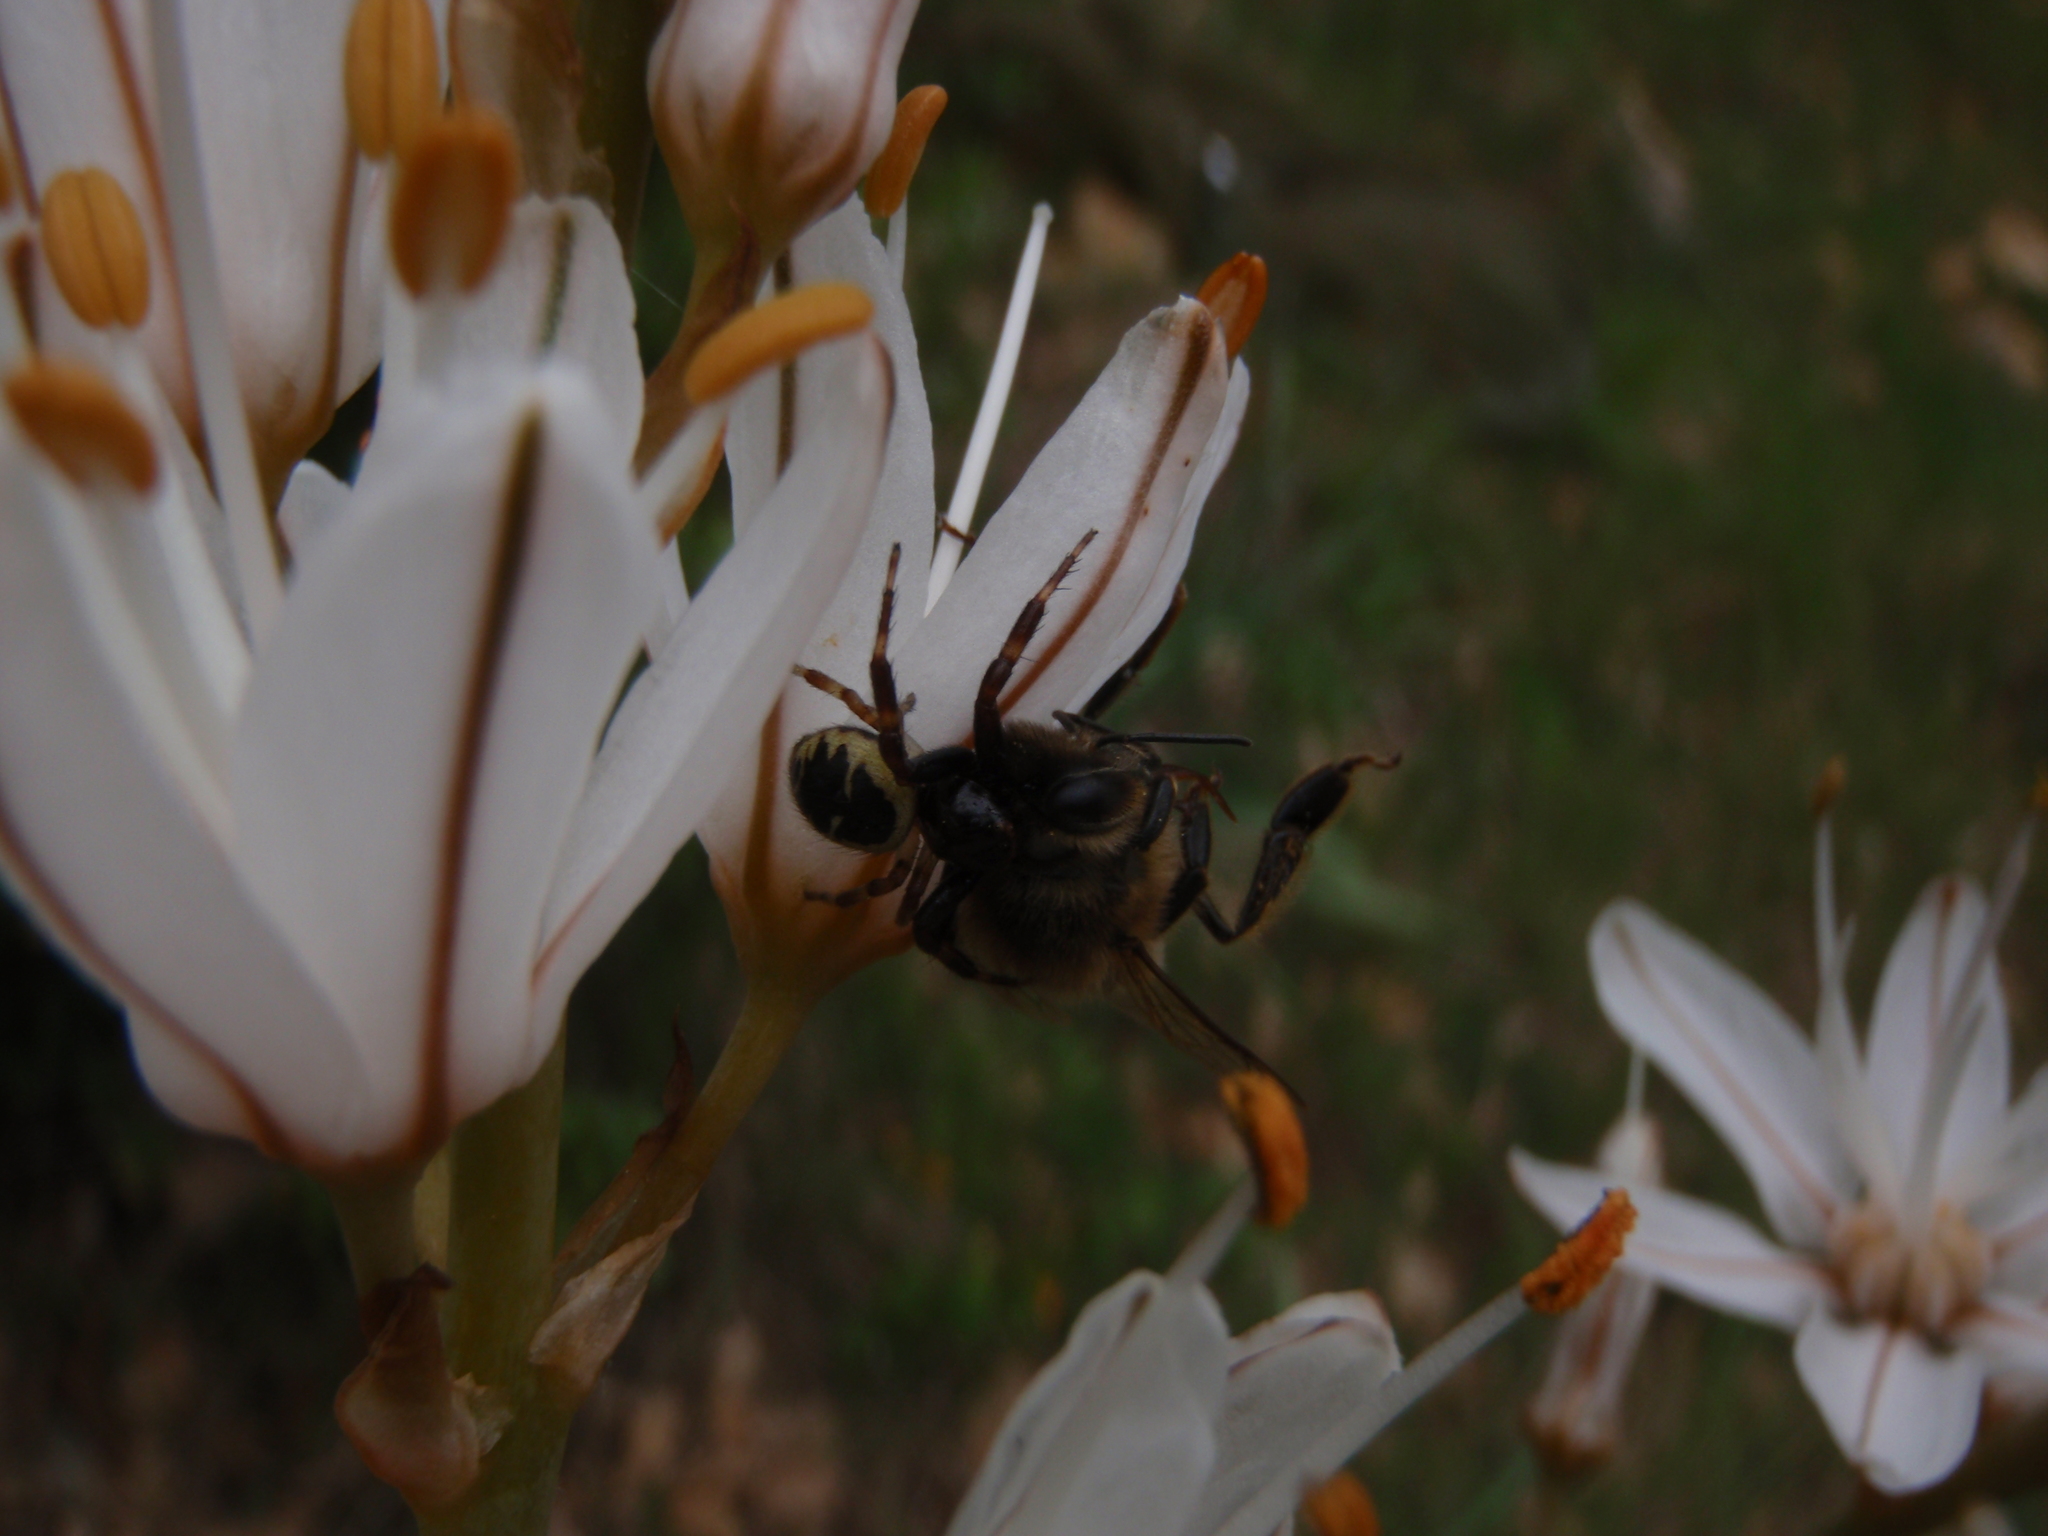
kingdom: Animalia
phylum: Arthropoda
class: Arachnida
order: Araneae
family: Thomisidae
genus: Synema
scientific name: Synema globosum
